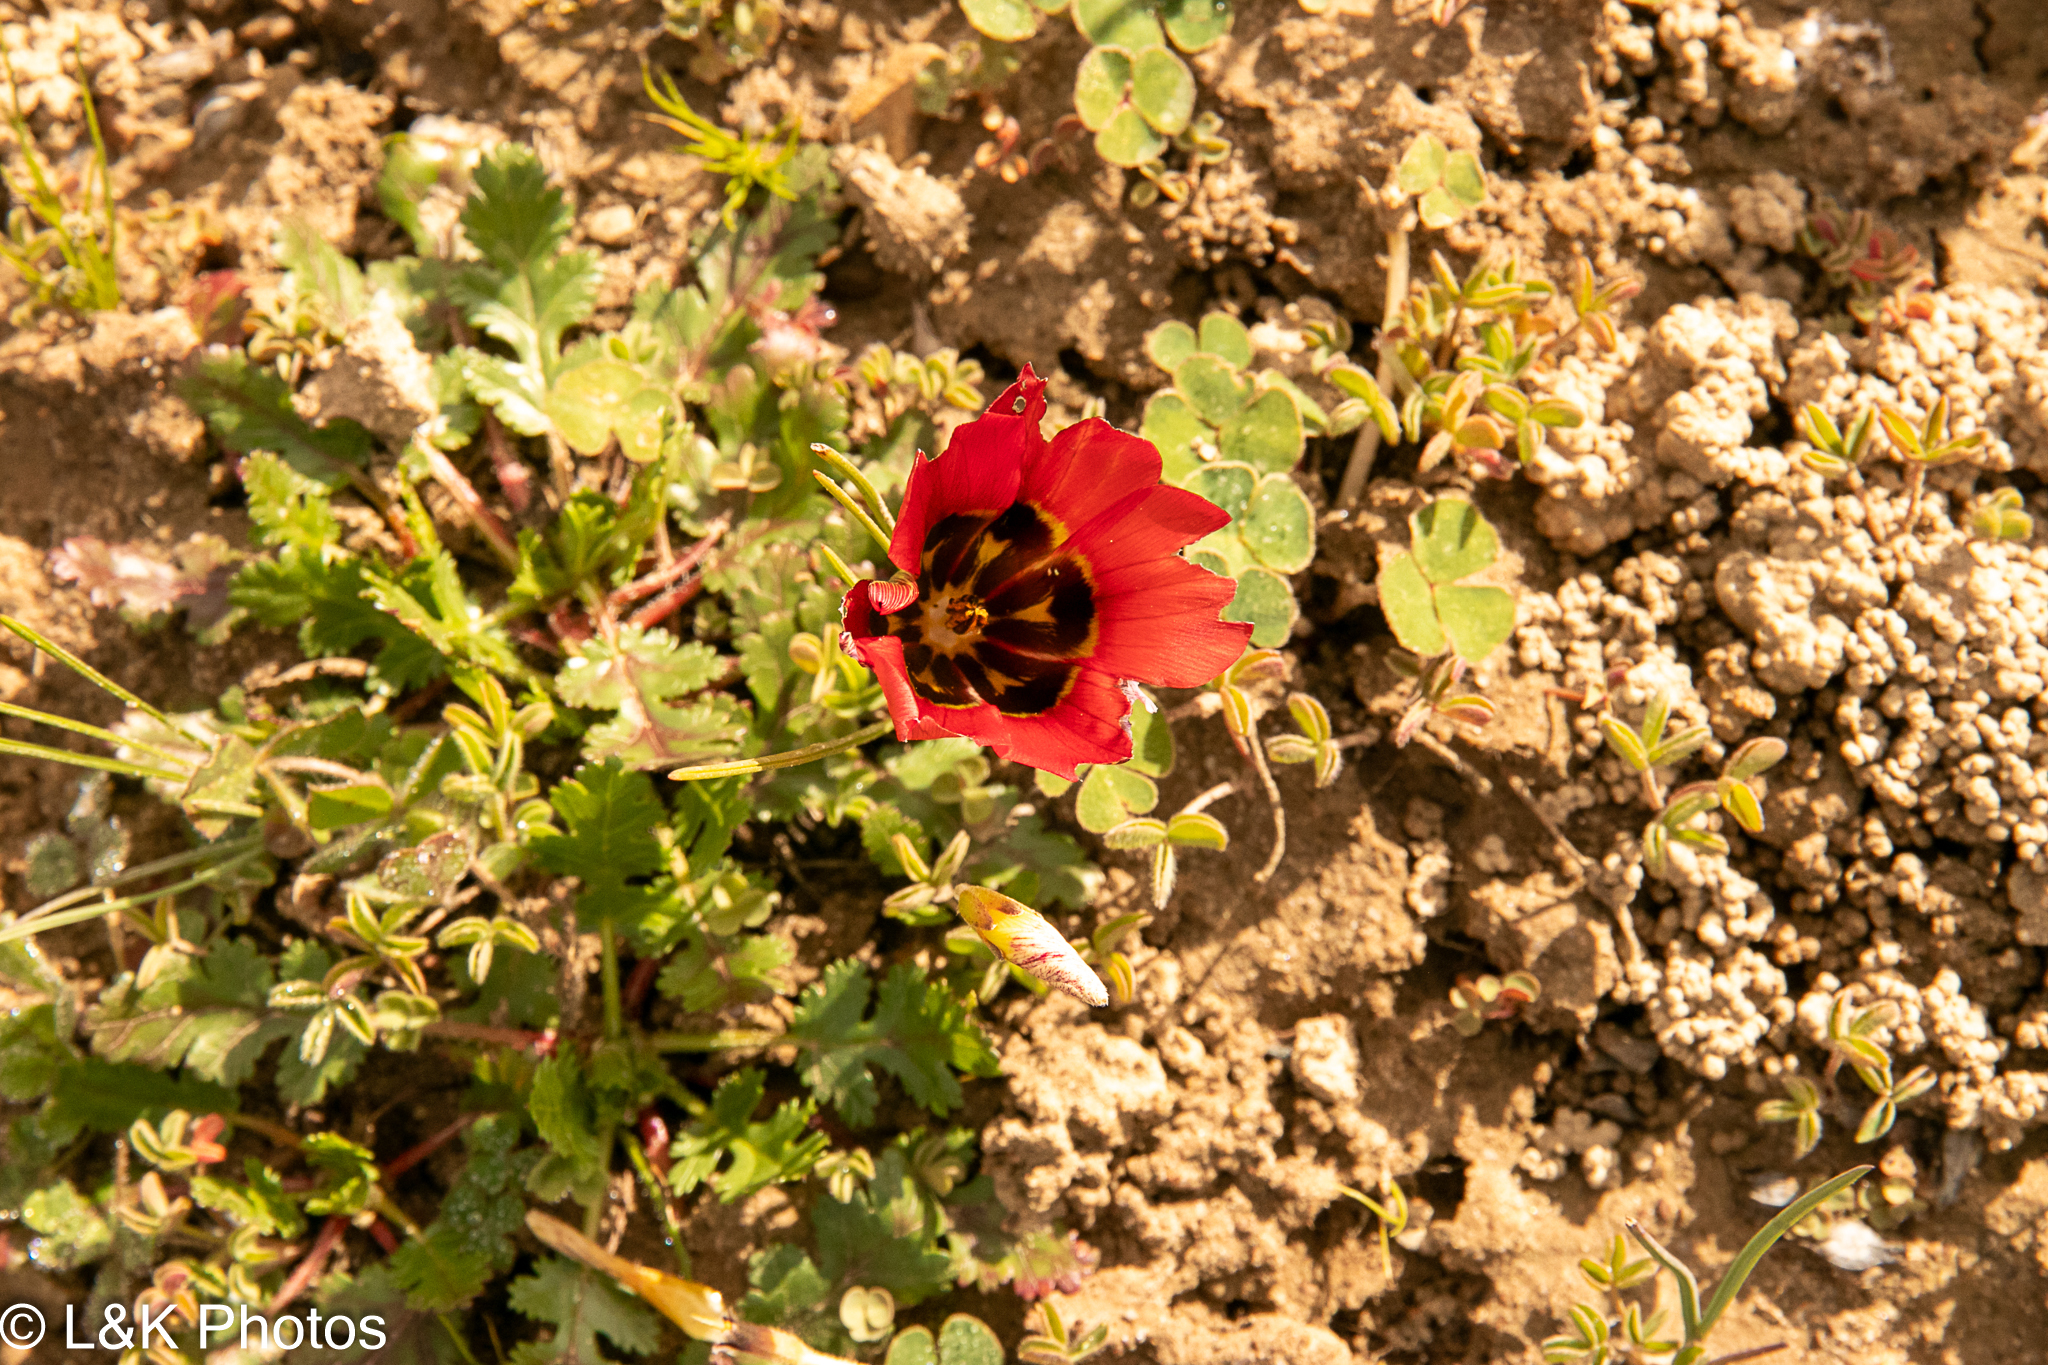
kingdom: Plantae
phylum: Tracheophyta
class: Liliopsida
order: Asparagales
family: Iridaceae
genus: Romulea
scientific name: Romulea sabulosa
